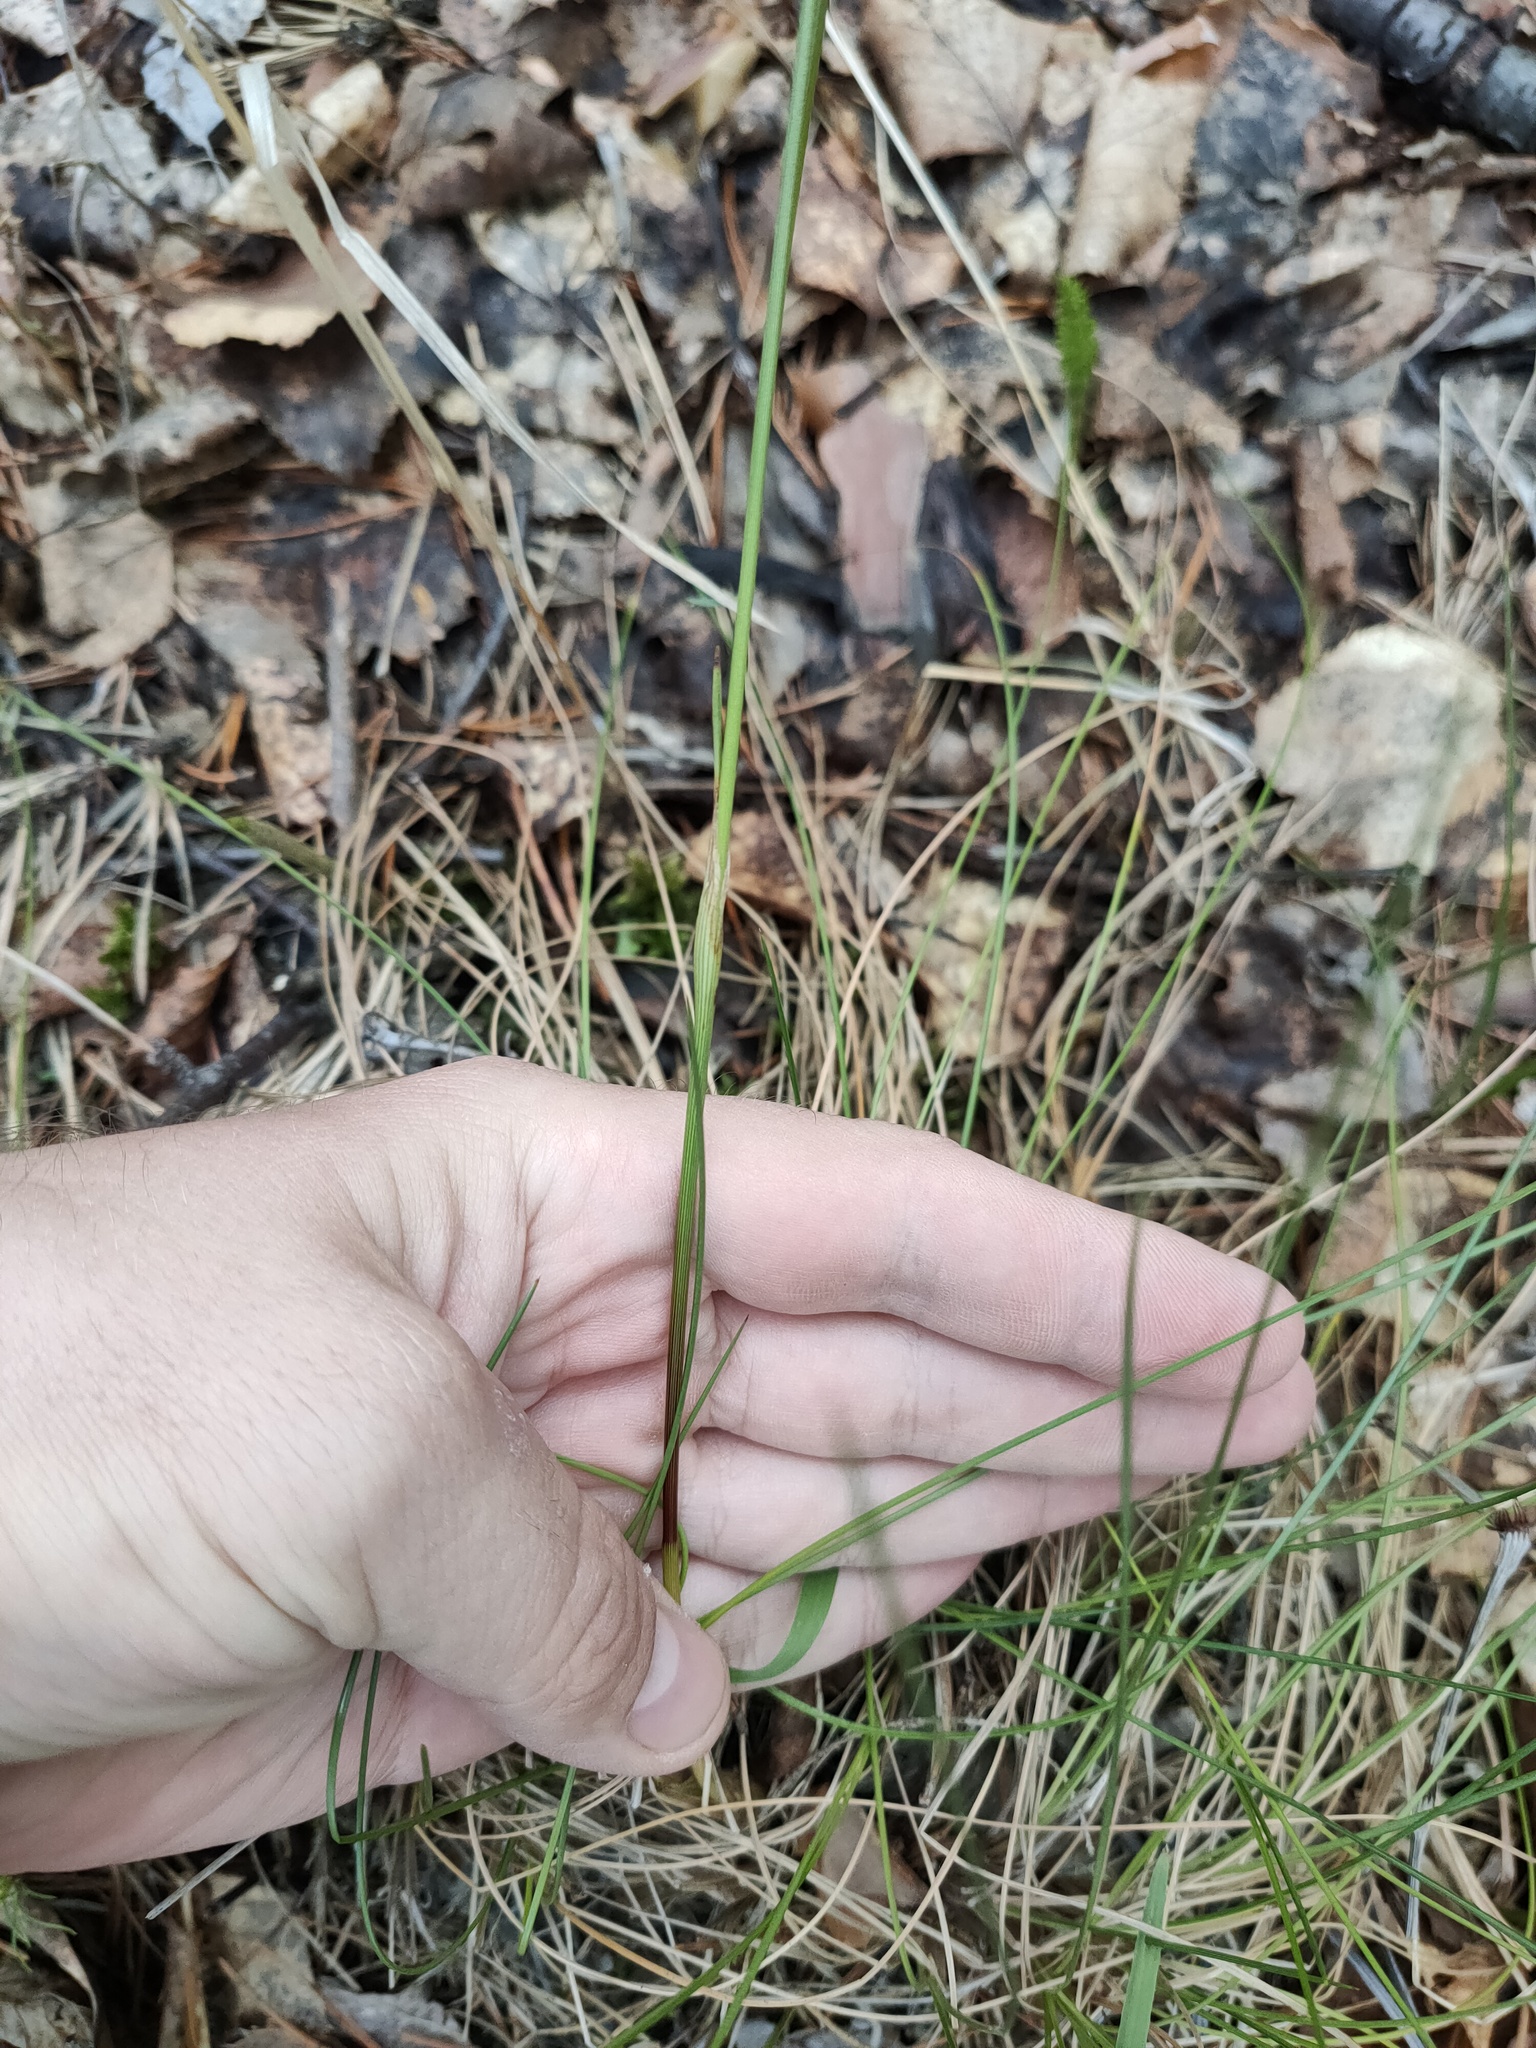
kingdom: Plantae
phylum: Tracheophyta
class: Liliopsida
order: Poales
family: Cyperaceae
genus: Eriophorum
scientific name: Eriophorum vaginatum
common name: Hare's-tail cottongrass
